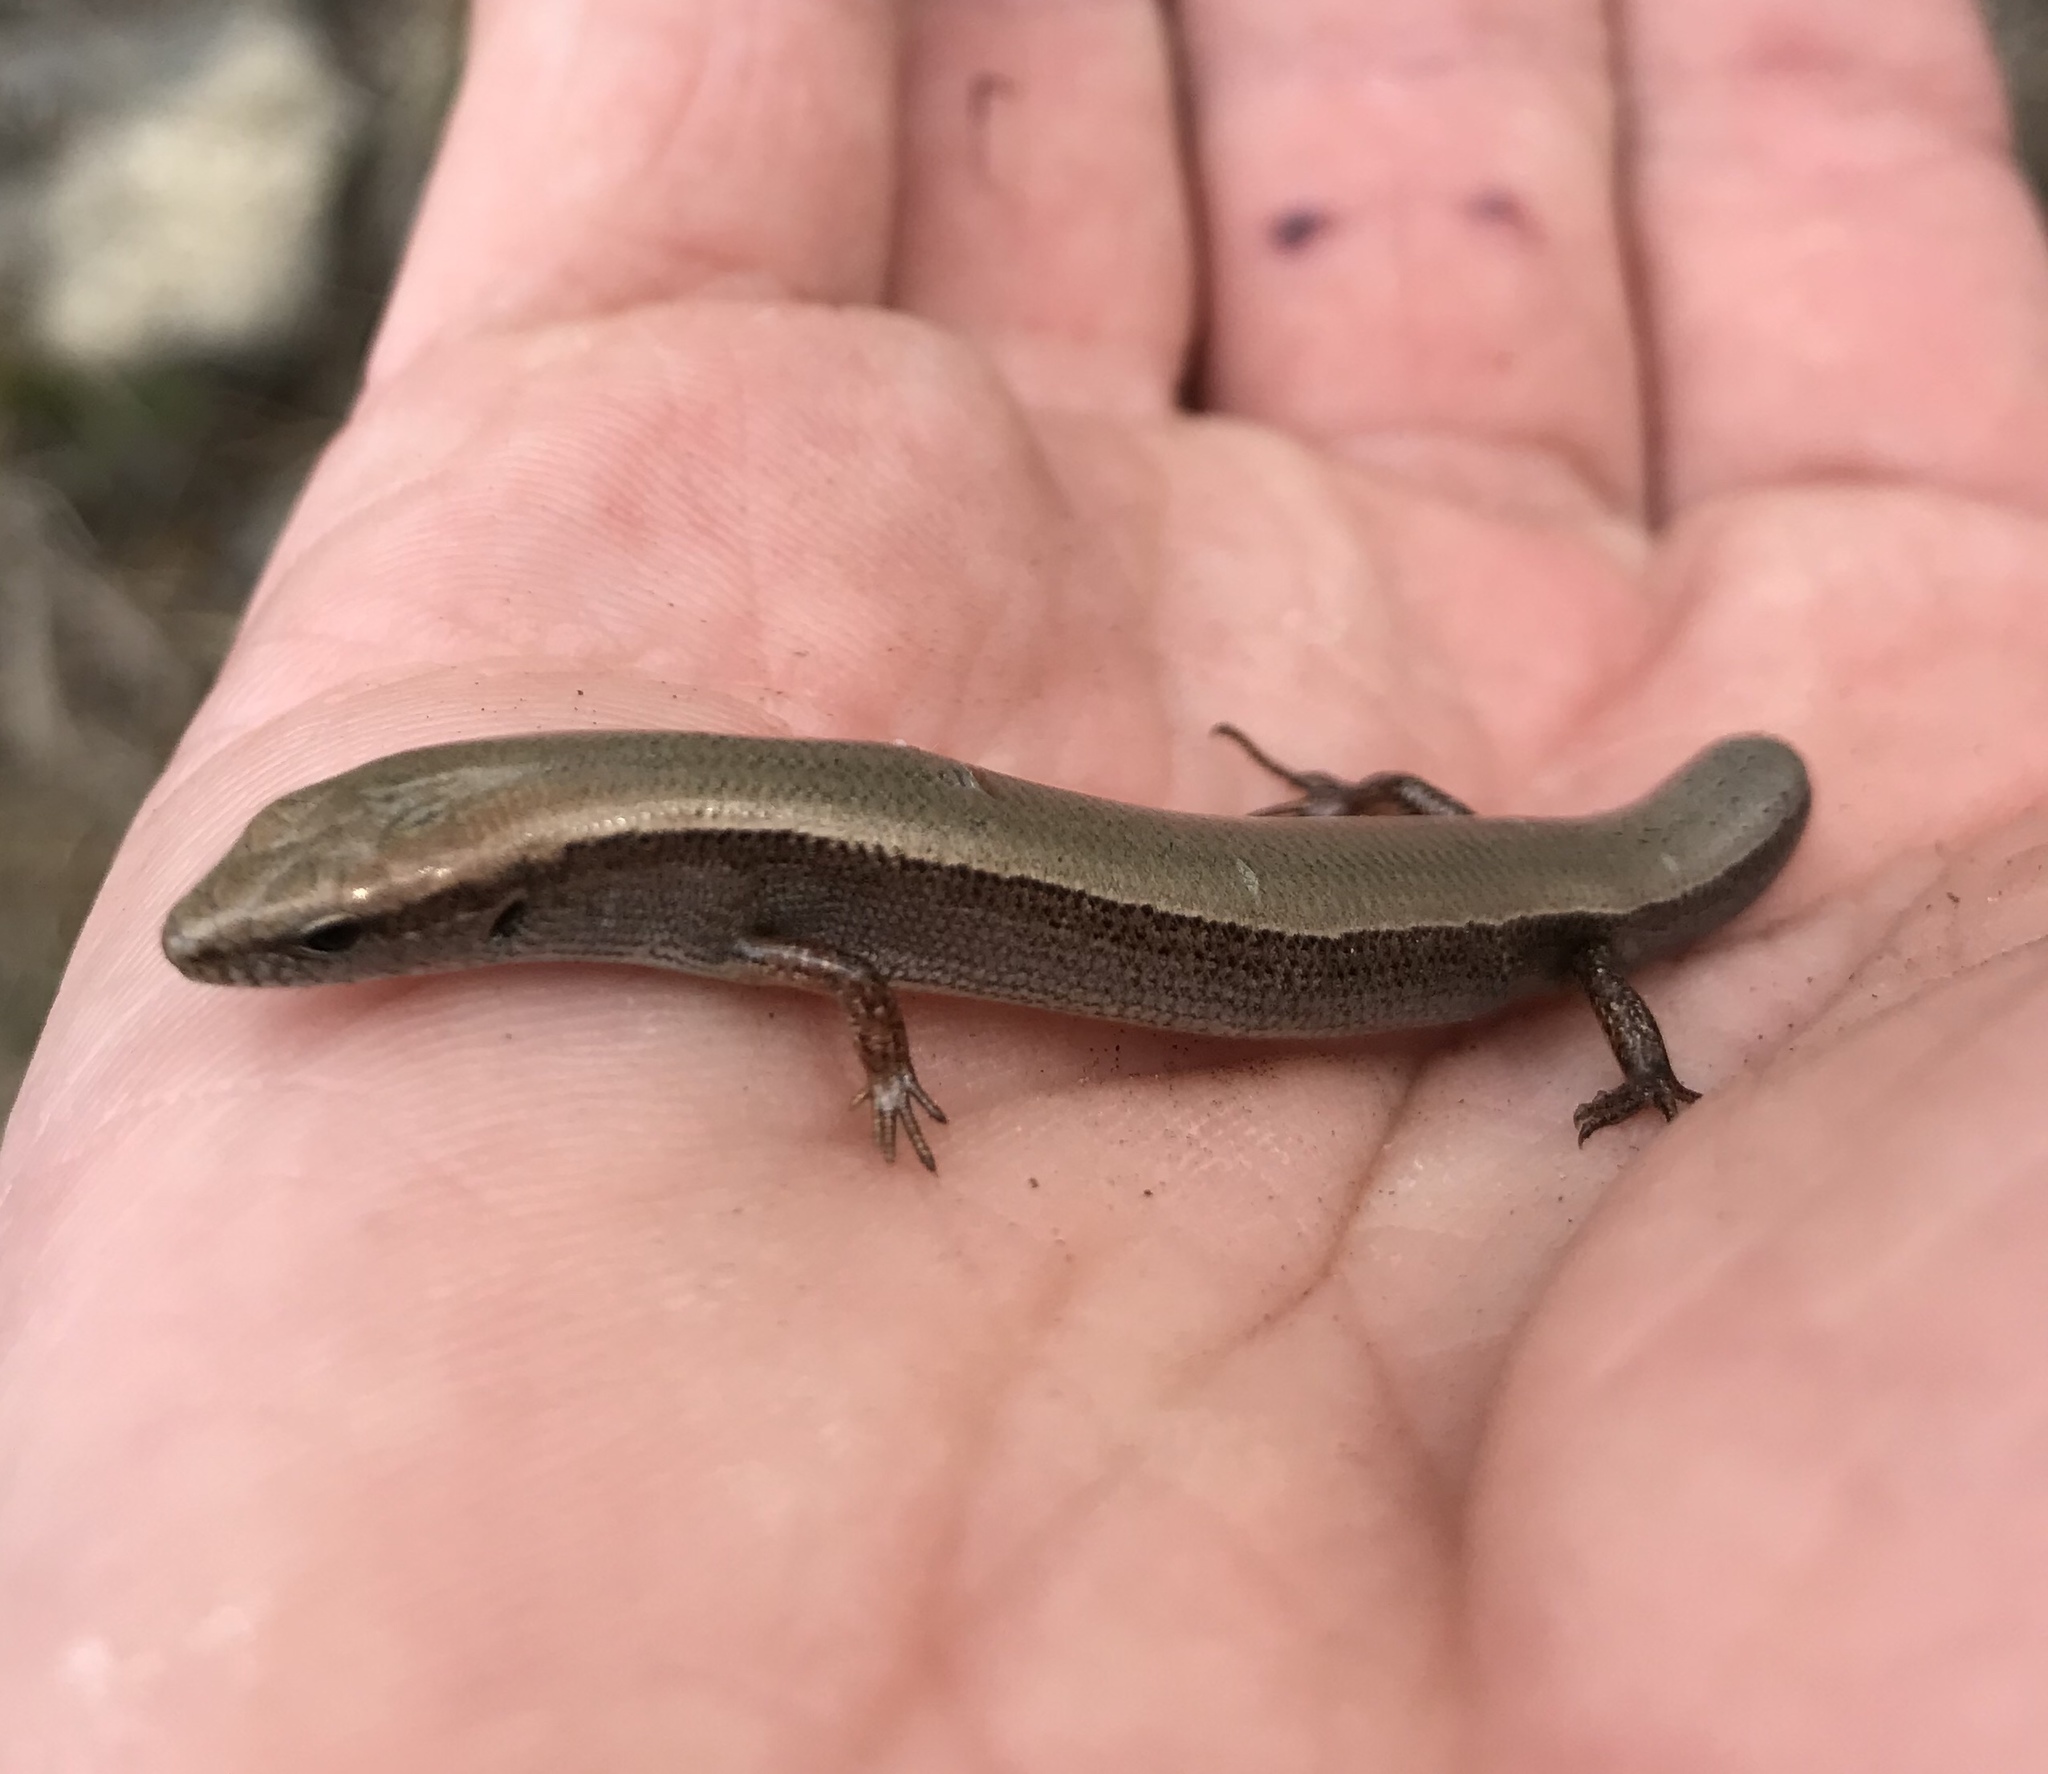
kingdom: Animalia
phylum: Chordata
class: Squamata
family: Scincidae
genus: Scincella
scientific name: Scincella lateralis
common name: Ground skink
